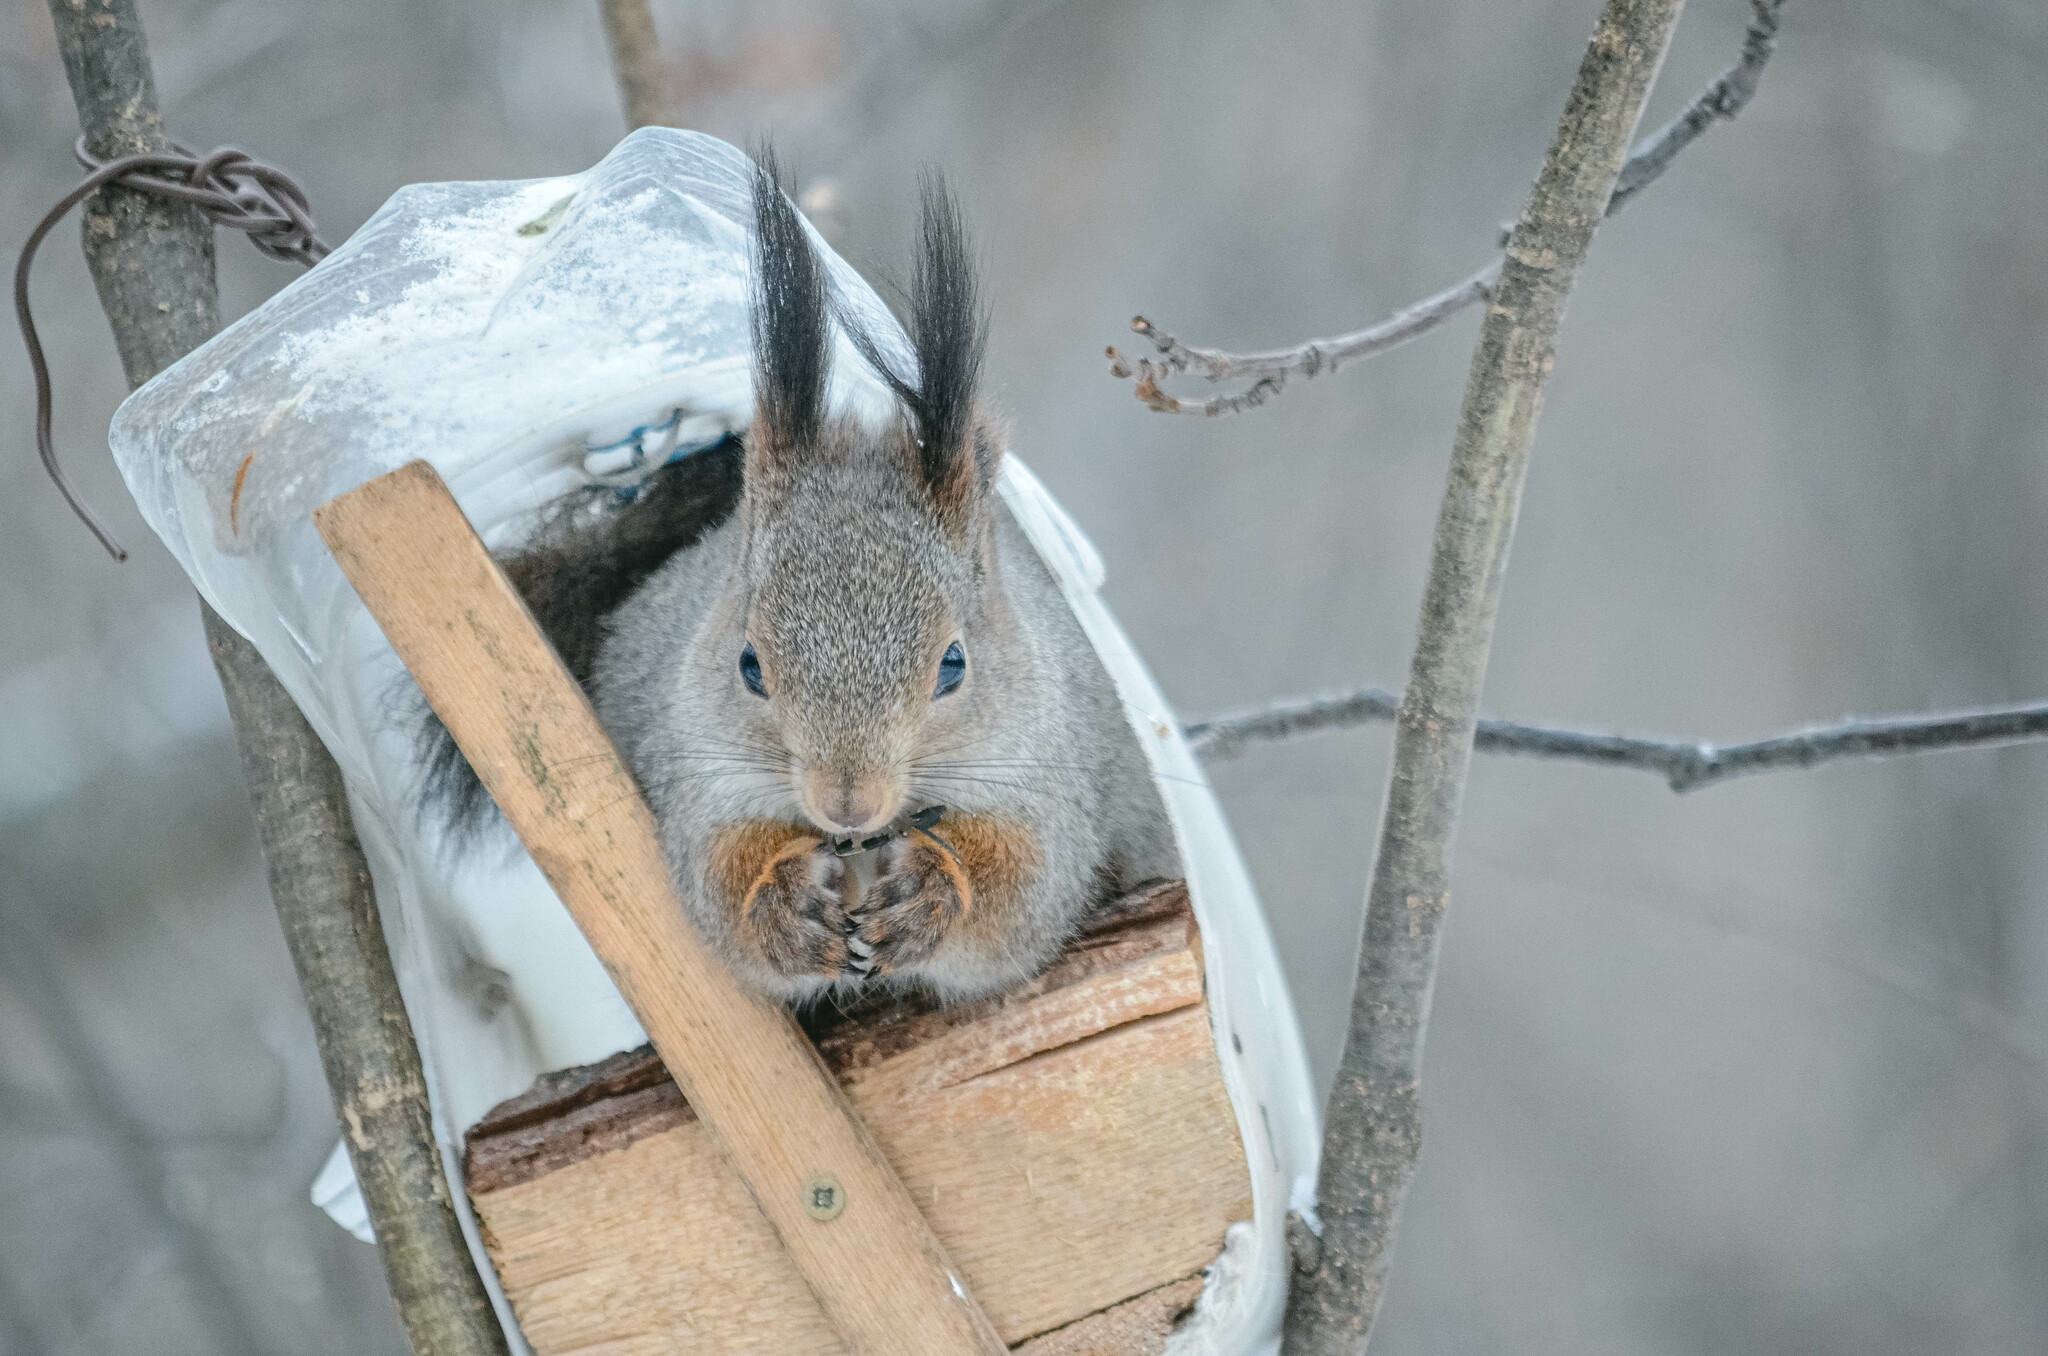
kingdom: Animalia
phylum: Chordata
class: Mammalia
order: Rodentia
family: Sciuridae
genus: Sciurus
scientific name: Sciurus vulgaris
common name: Eurasian red squirrel
